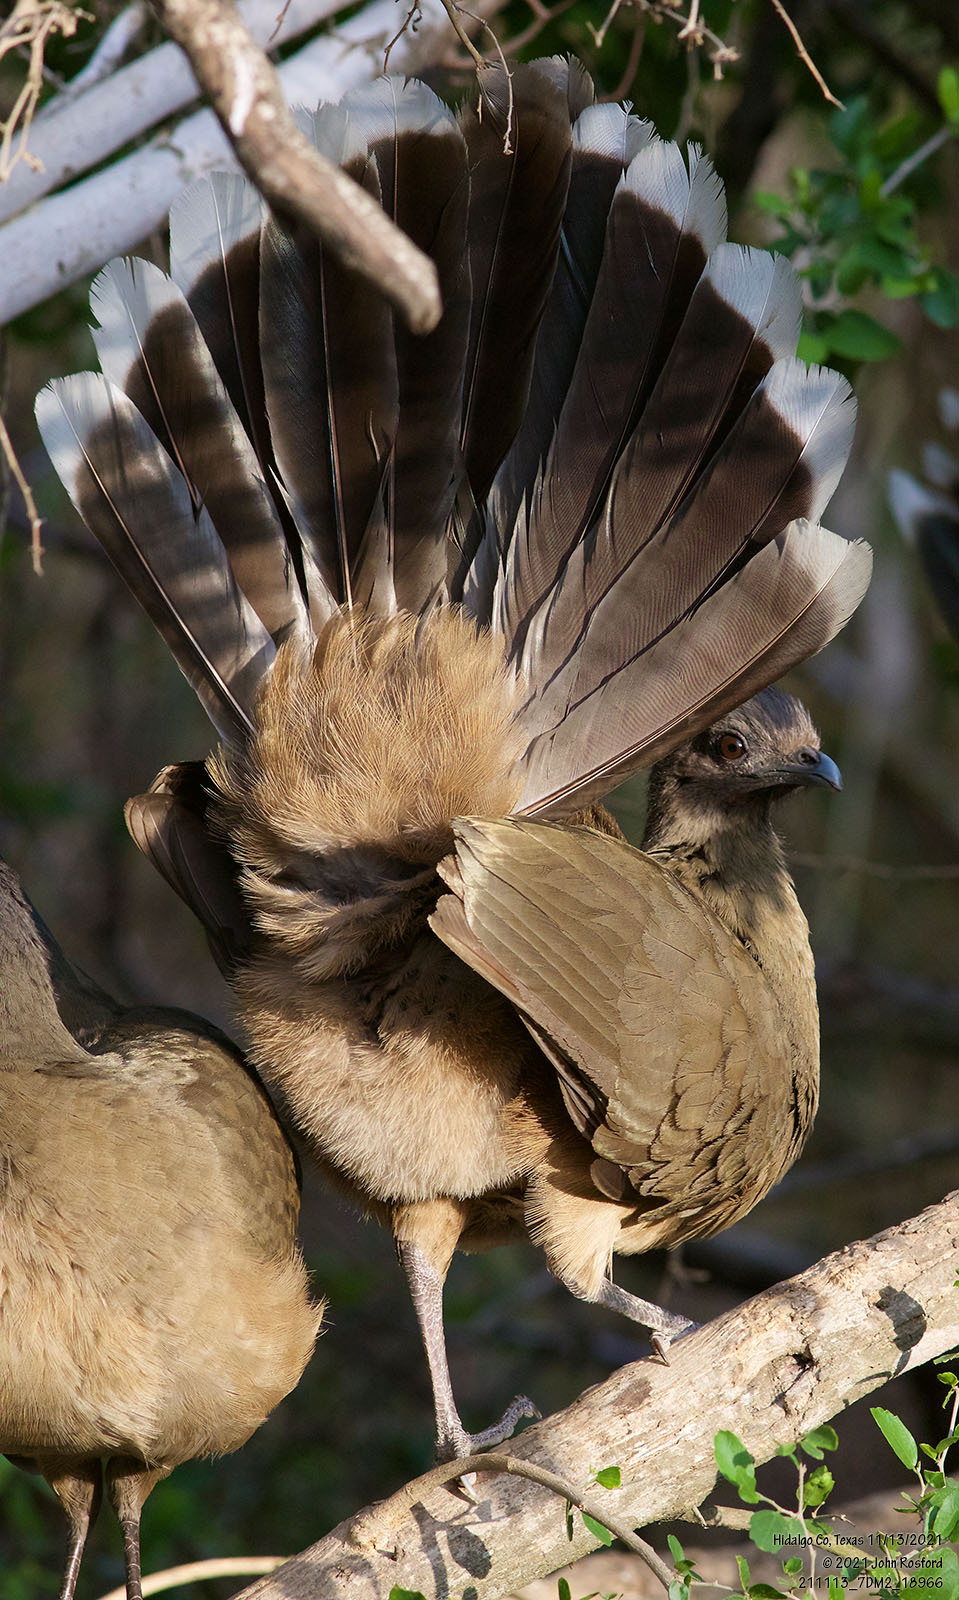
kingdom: Animalia
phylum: Chordata
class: Aves
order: Galliformes
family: Cracidae
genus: Ortalis
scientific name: Ortalis vetula
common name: Plain chachalaca
